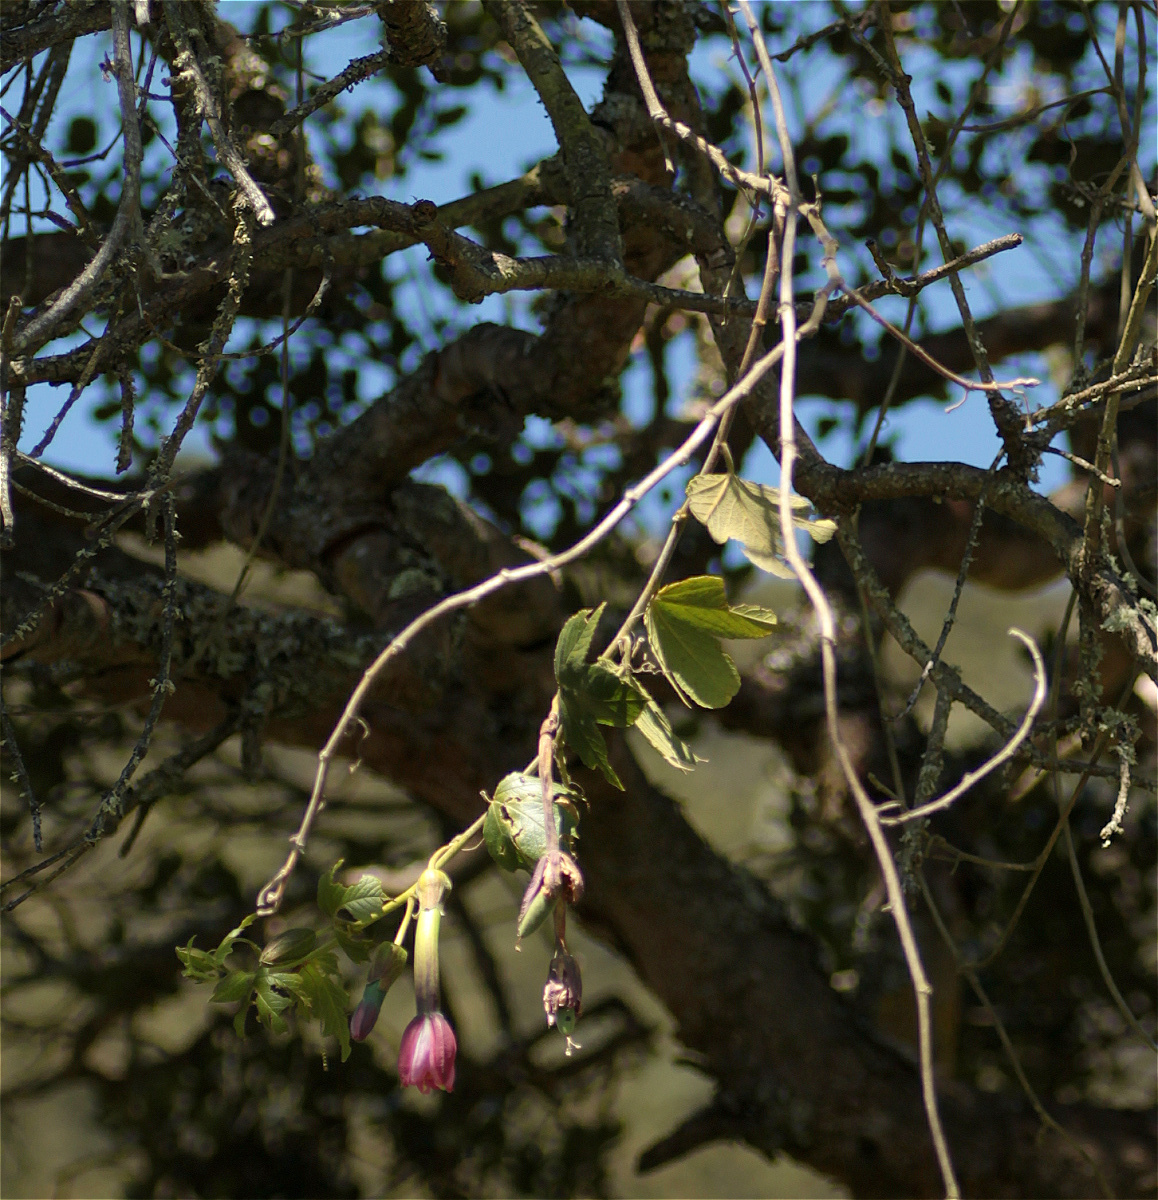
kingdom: Plantae
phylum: Tracheophyta
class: Magnoliopsida
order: Malpighiales
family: Passifloraceae
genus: Passiflora
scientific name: Passiflora tripartita
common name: Banana poka
